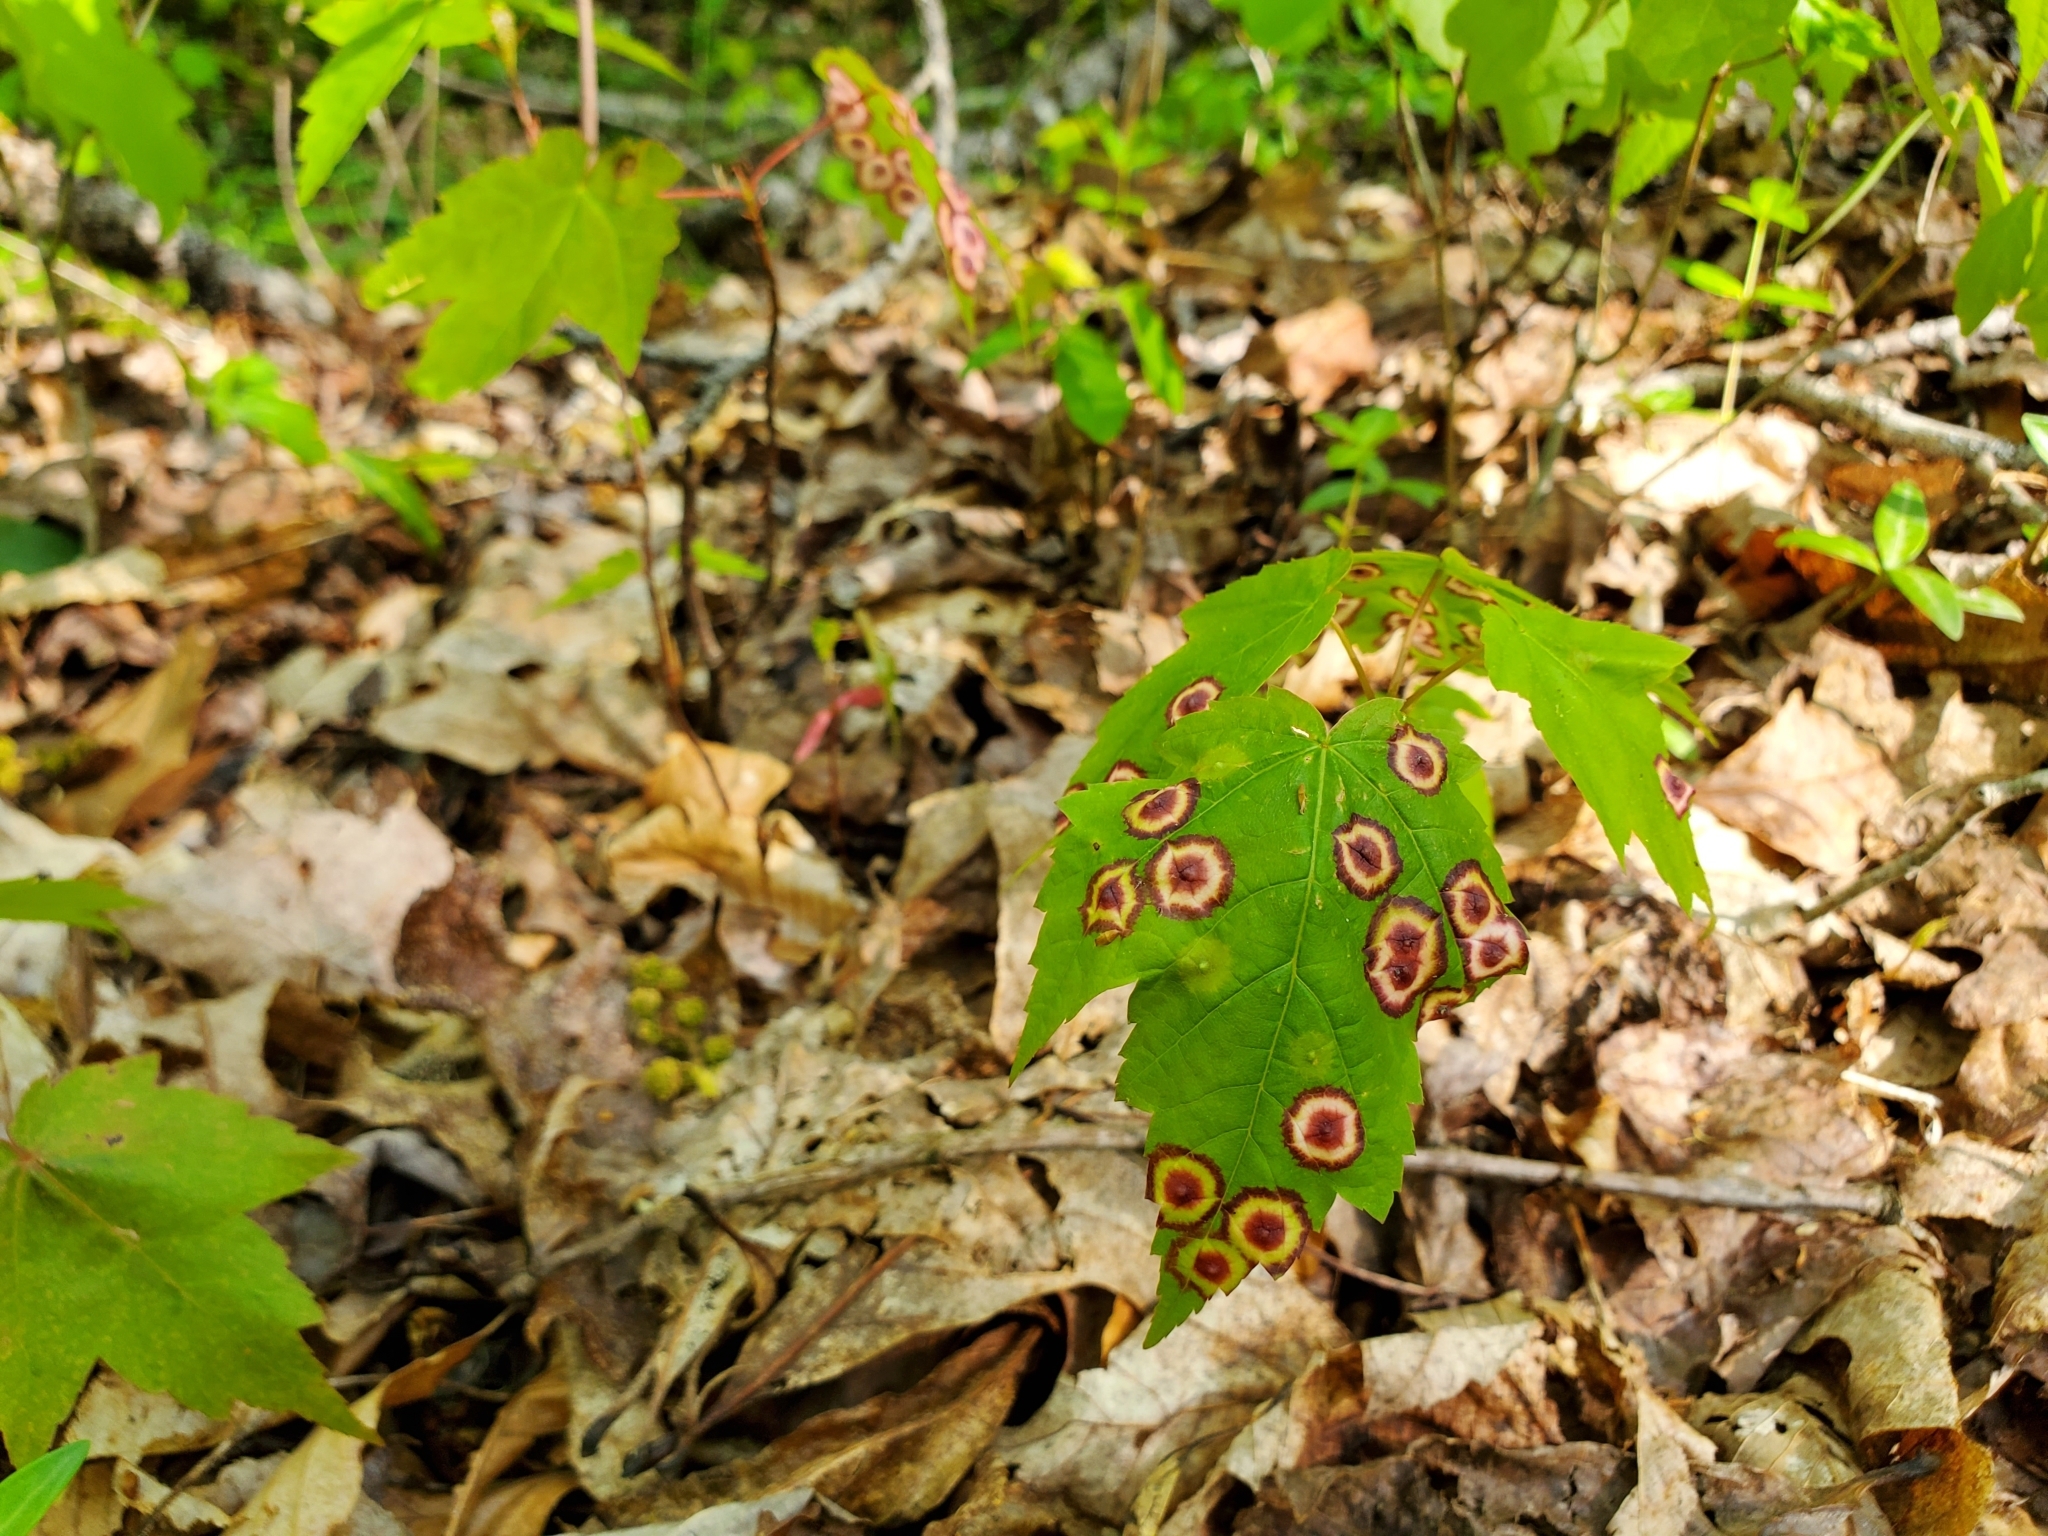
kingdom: Animalia
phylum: Arthropoda
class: Insecta
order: Diptera
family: Cecidomyiidae
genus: Acericecis
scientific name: Acericecis ocellaris
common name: Ocellate gall midge
